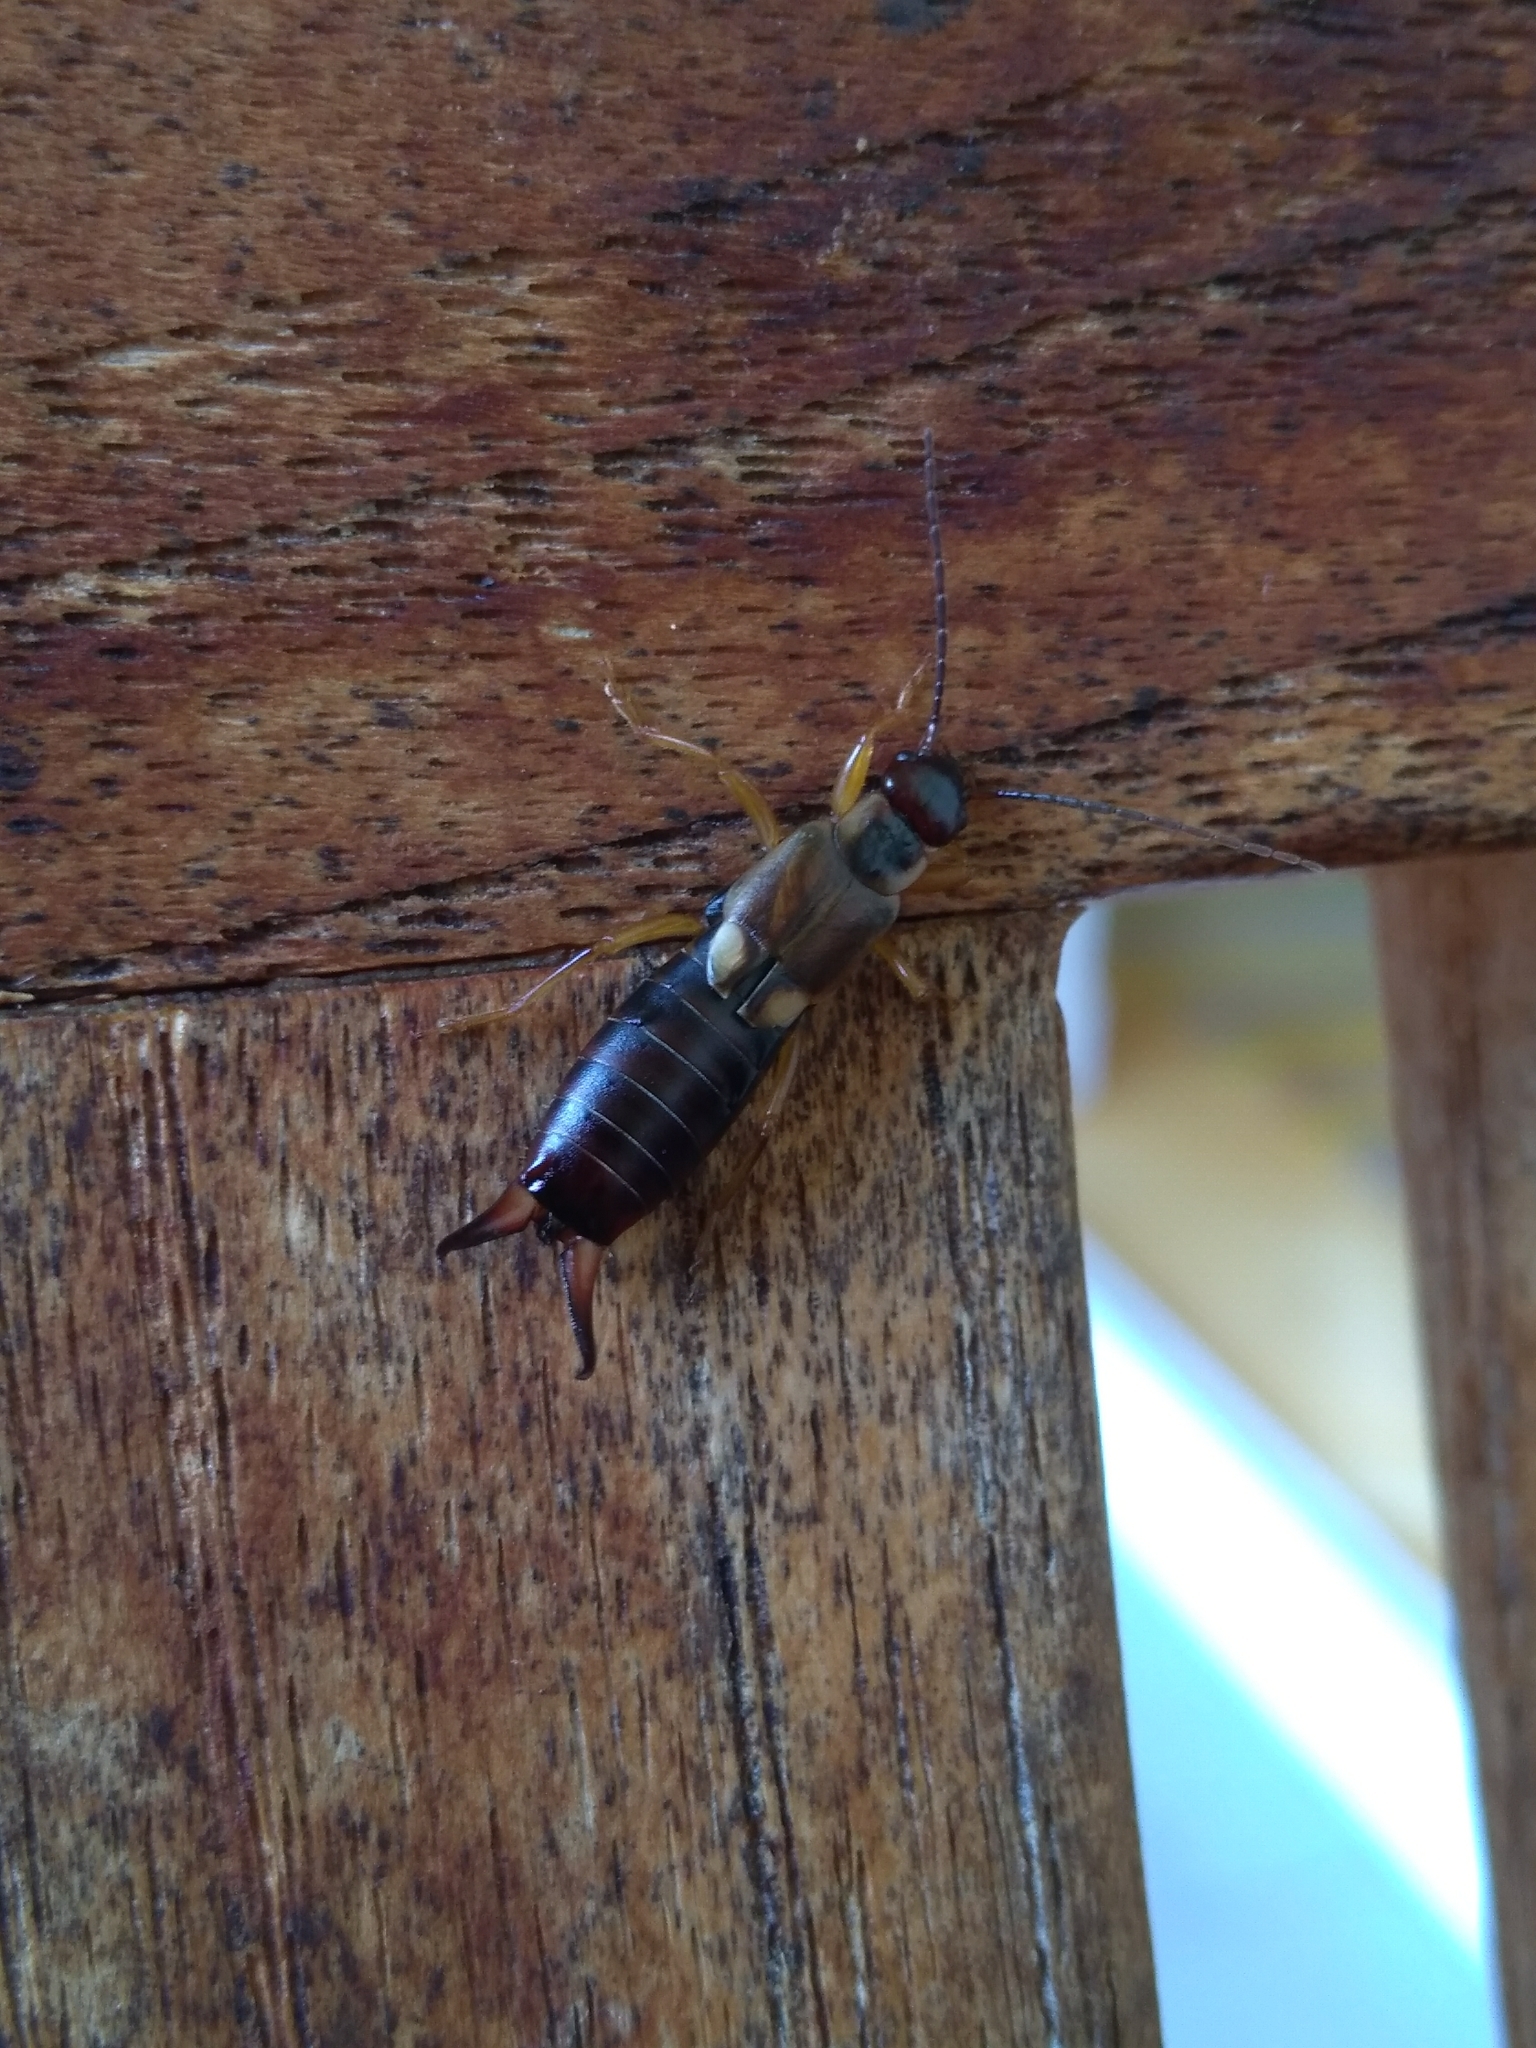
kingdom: Animalia
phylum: Arthropoda
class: Insecta
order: Dermaptera
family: Forficulidae
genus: Forficula
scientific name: Forficula
